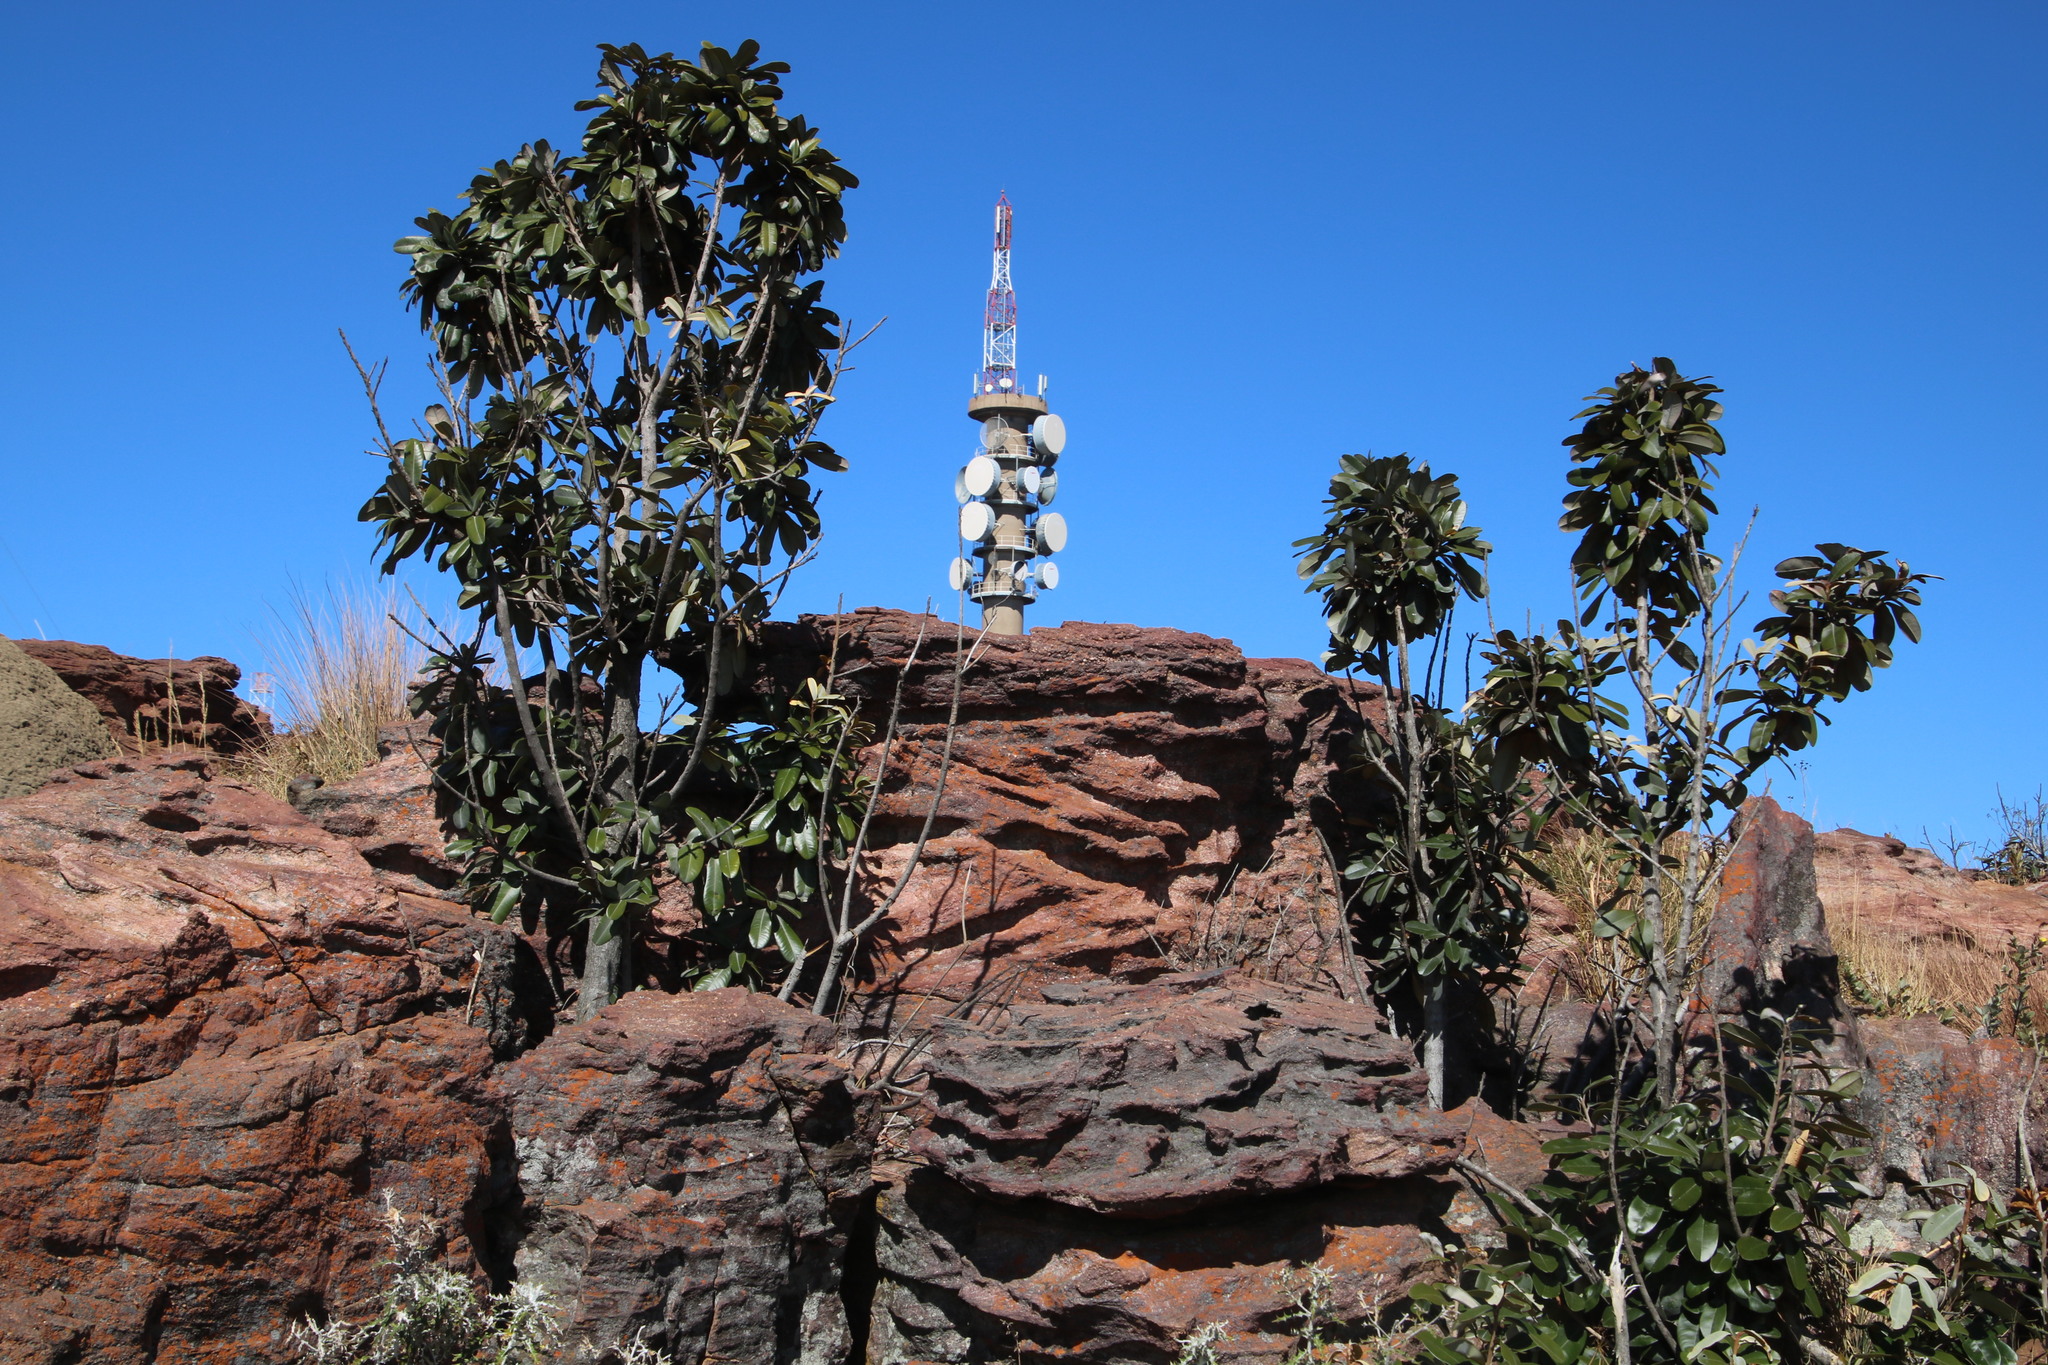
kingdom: Plantae
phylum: Tracheophyta
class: Magnoliopsida
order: Ericales
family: Sapotaceae
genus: Englerophytum
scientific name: Englerophytum magalismontanum
